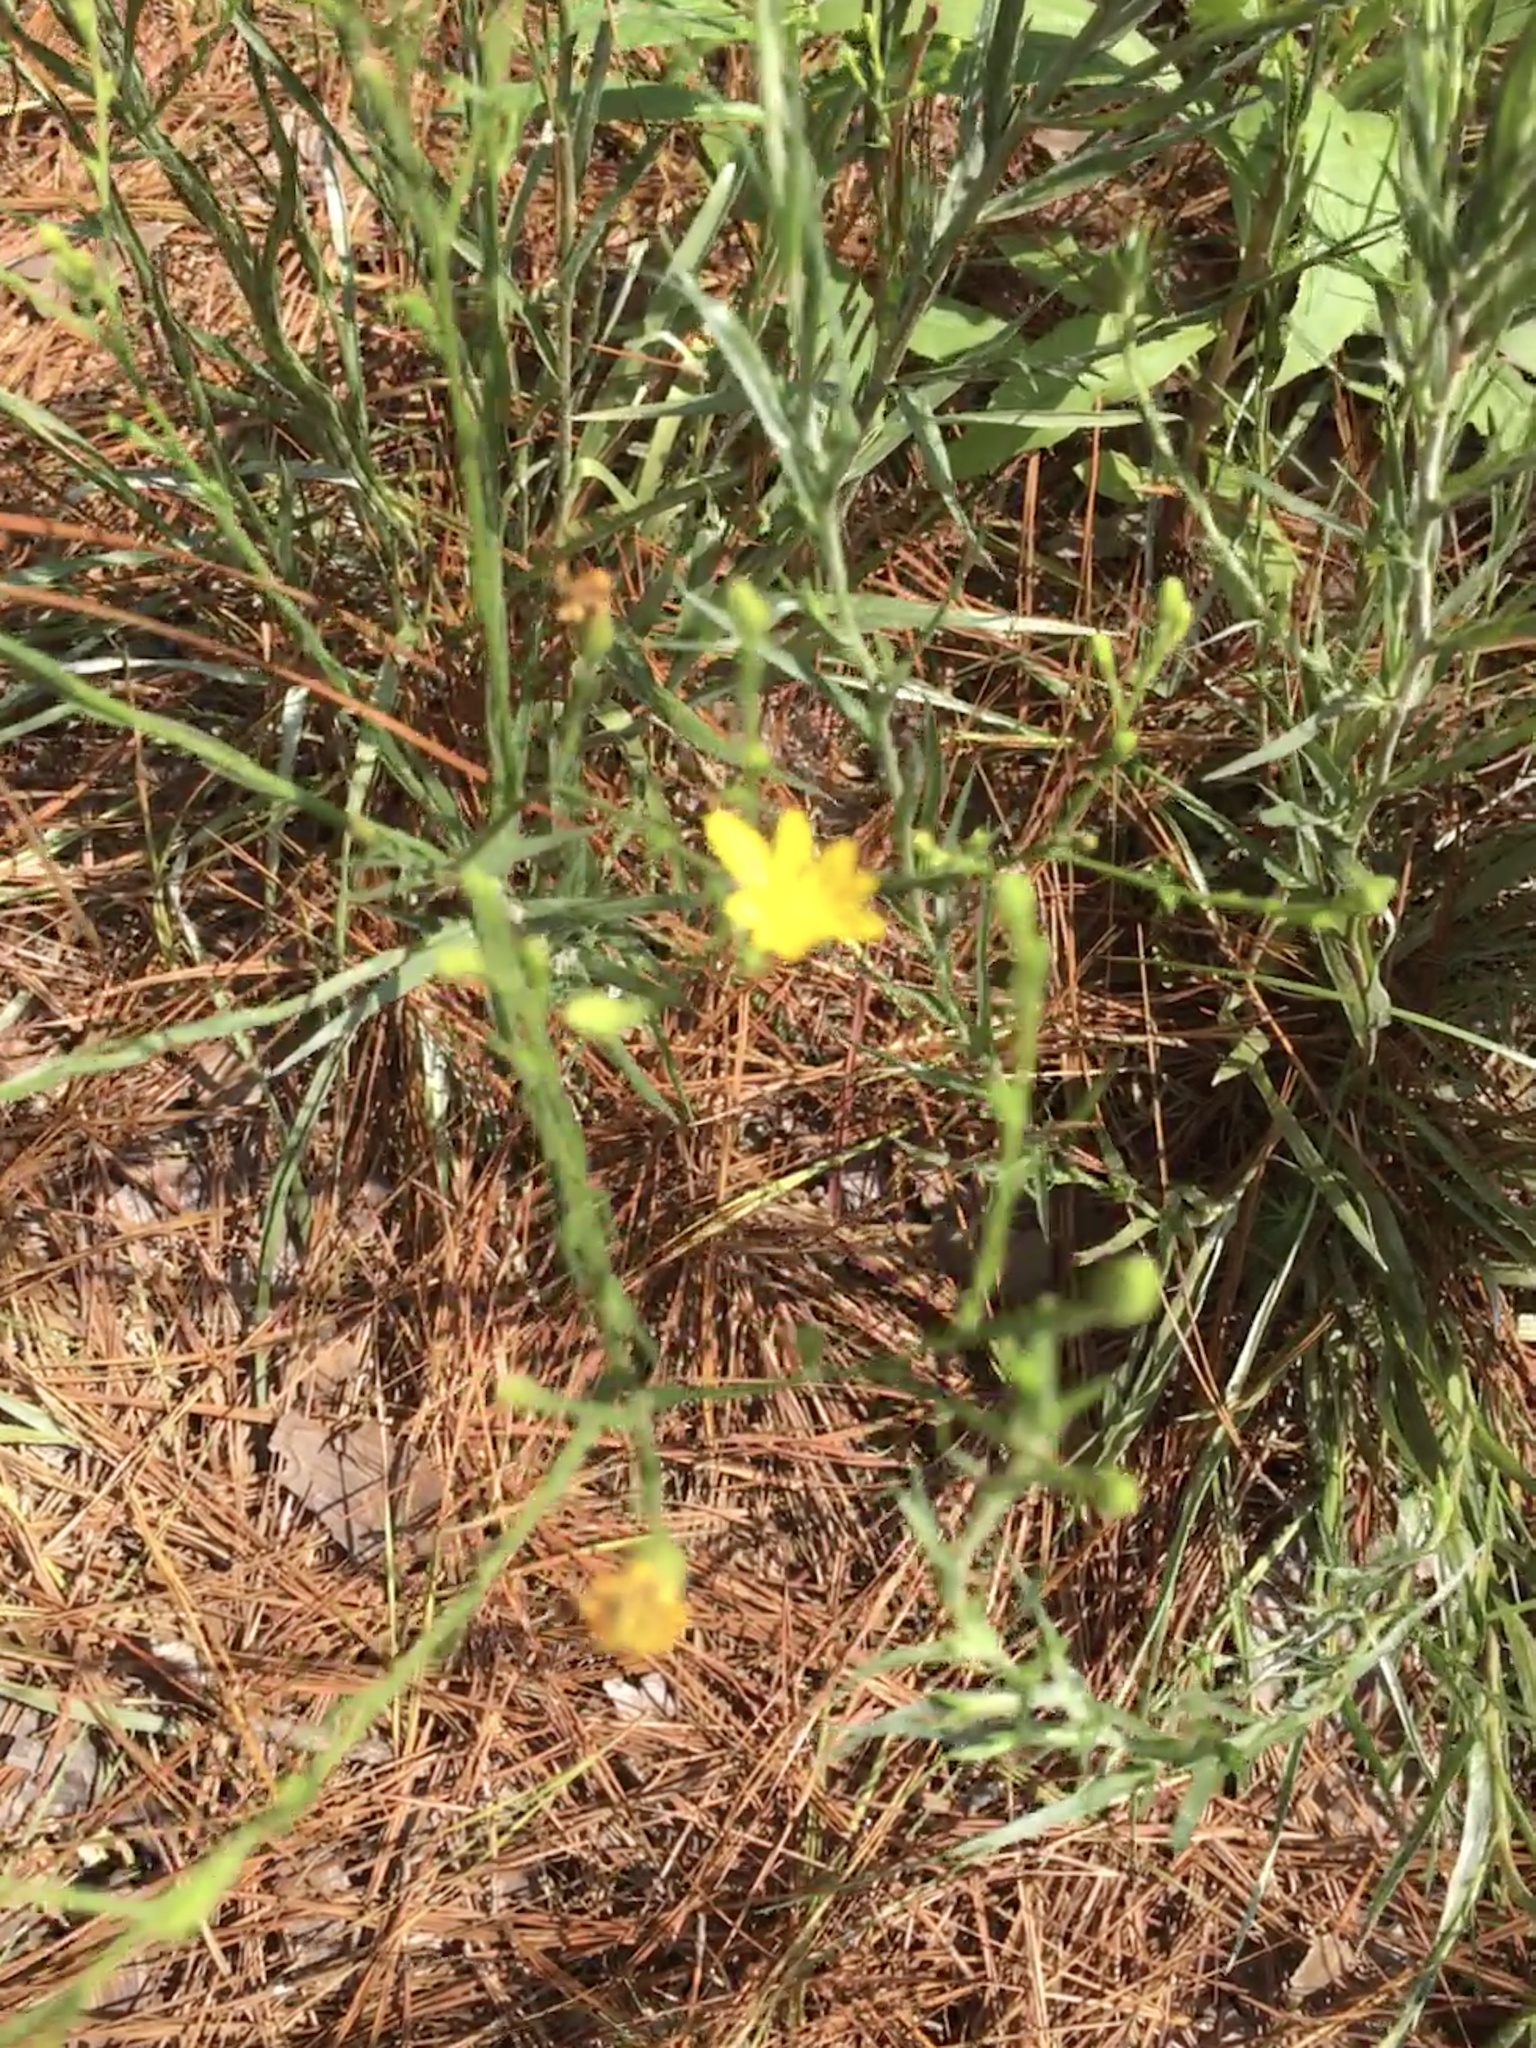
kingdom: Plantae
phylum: Tracheophyta
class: Magnoliopsida
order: Asterales
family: Asteraceae
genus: Pityopsis
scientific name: Pityopsis aspera
